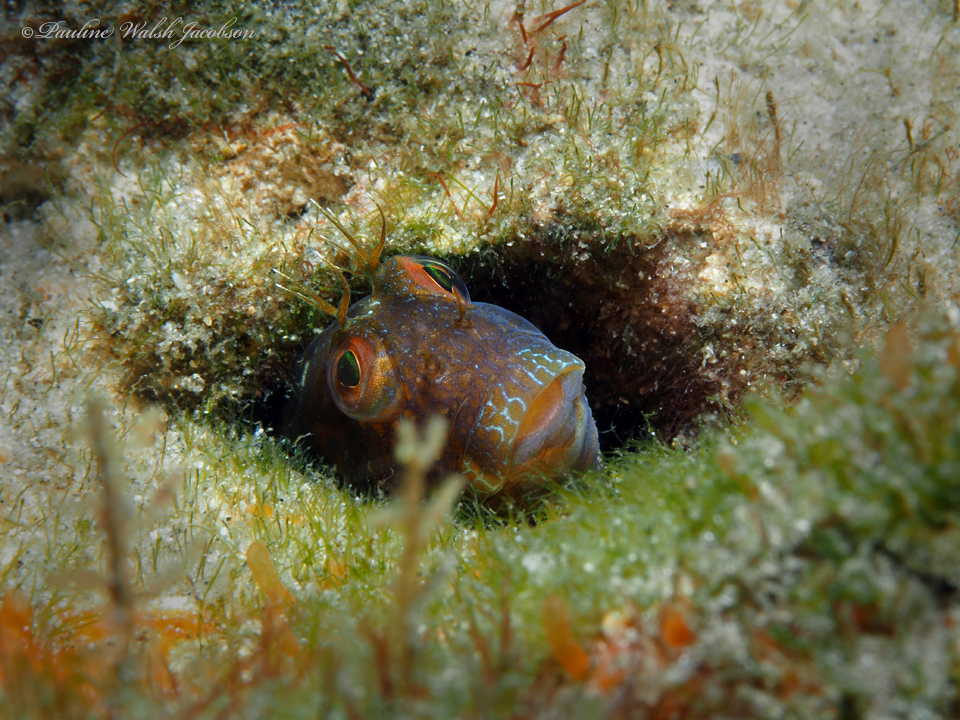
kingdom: Animalia
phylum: Chordata
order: Perciformes
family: Blenniidae
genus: Parablennius
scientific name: Parablennius marmoreus
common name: Seaweed blenny
